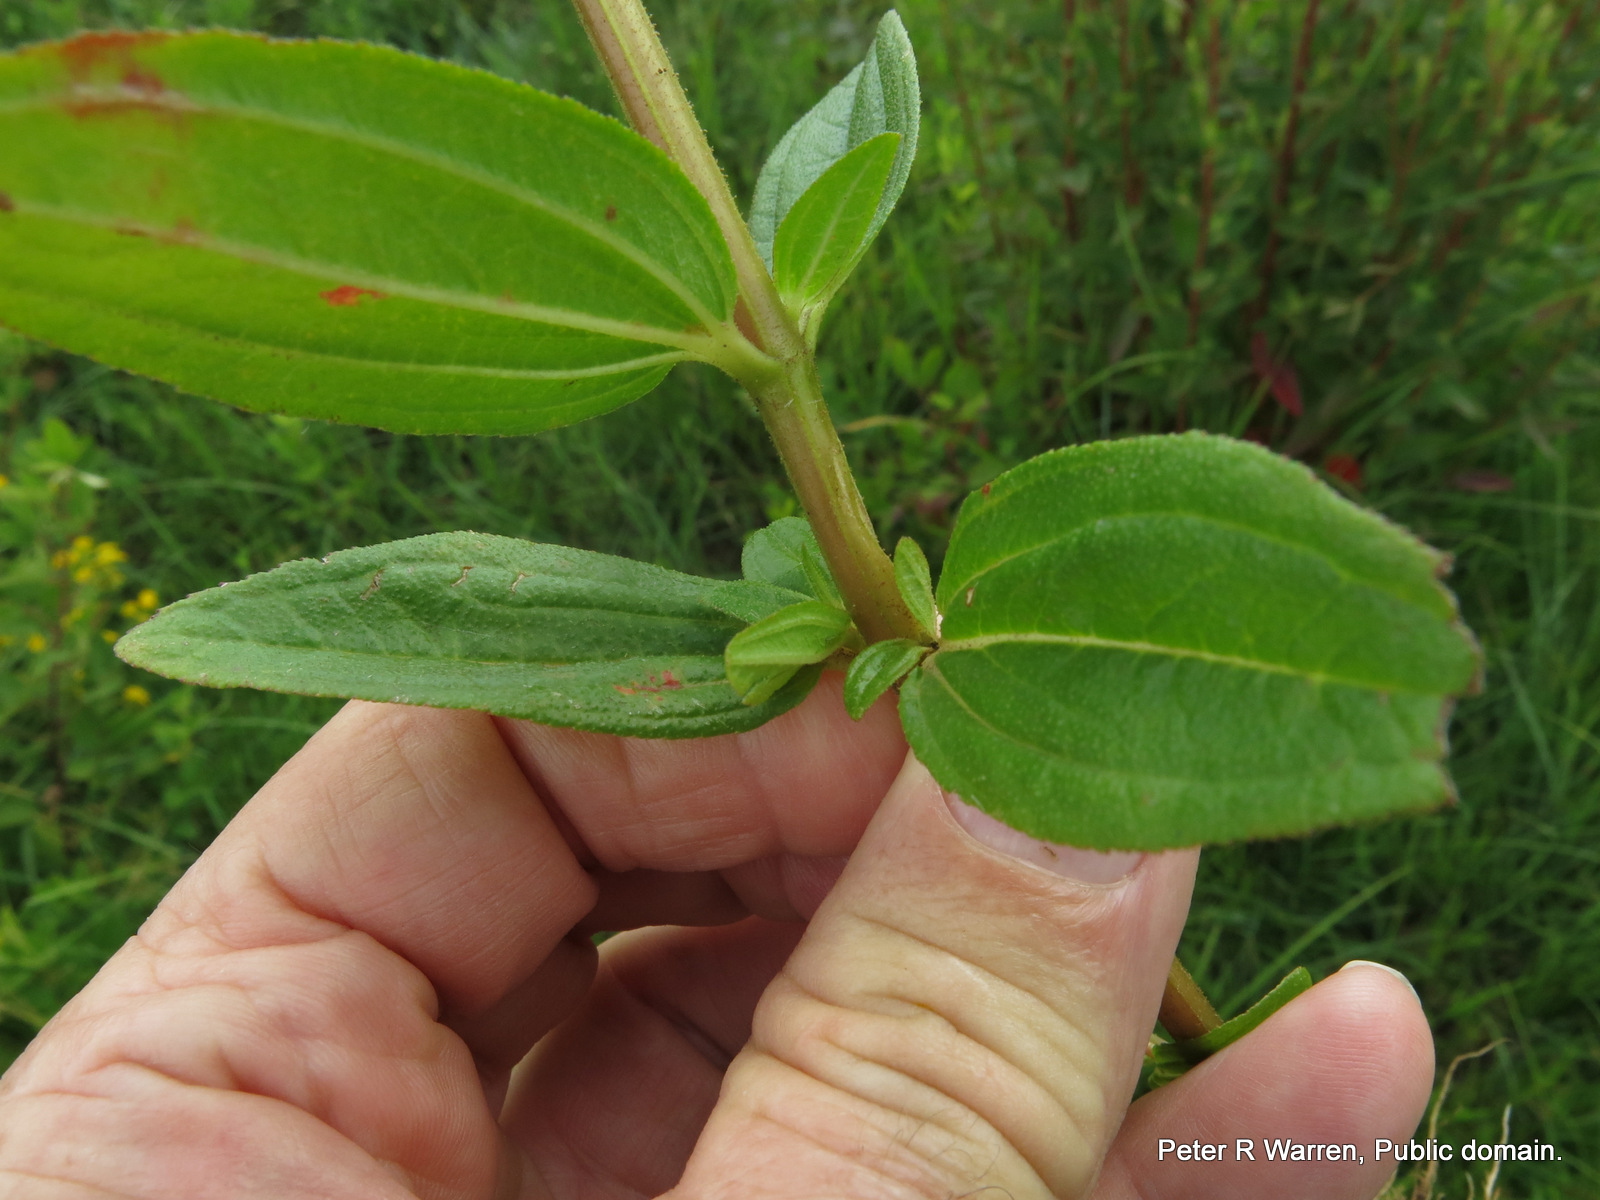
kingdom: Plantae
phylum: Tracheophyta
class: Magnoliopsida
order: Myrtales
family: Melastomataceae
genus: Argyrella
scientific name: Argyrella canescens
